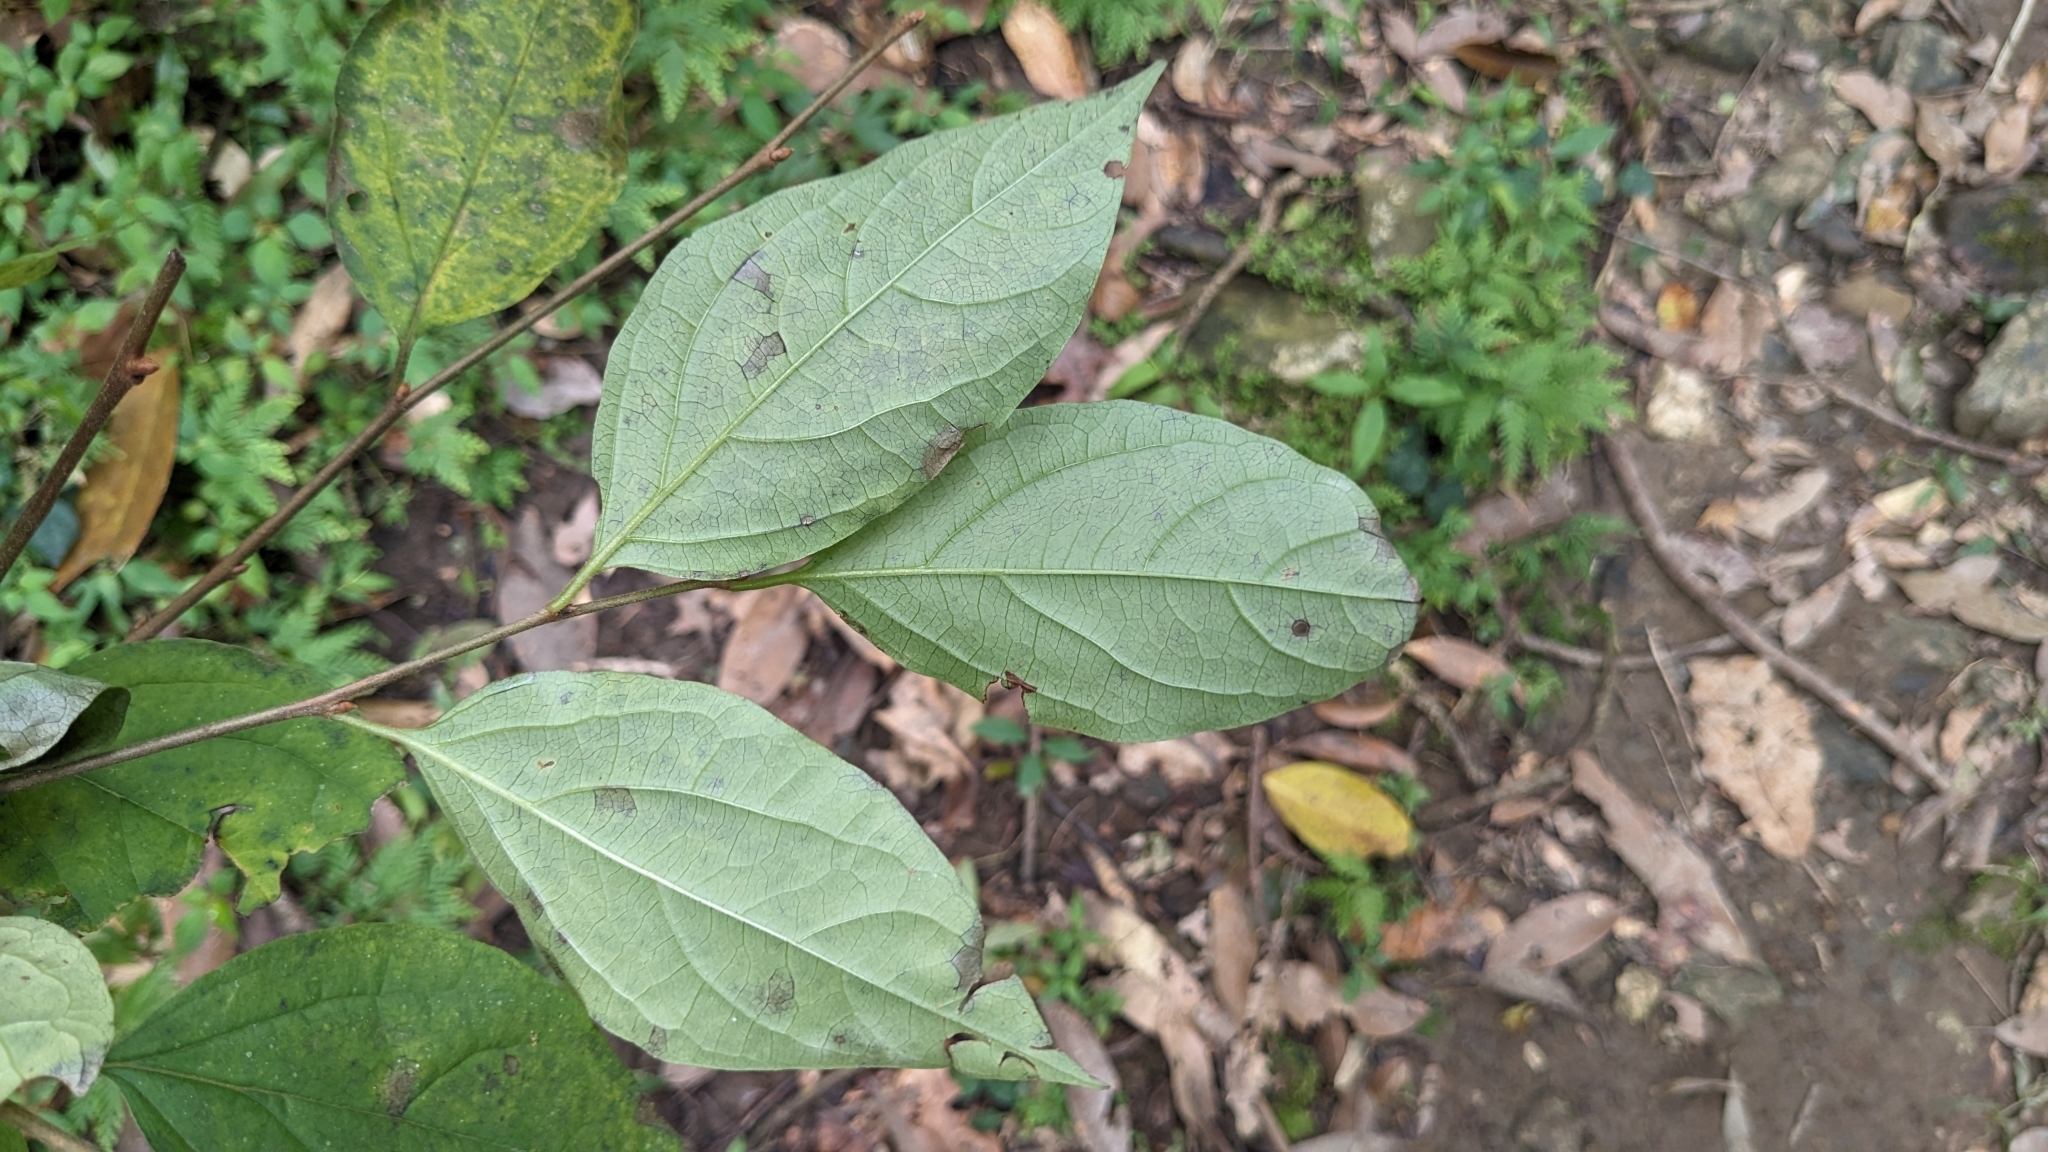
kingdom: Plantae
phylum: Tracheophyta
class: Magnoliopsida
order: Ericales
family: Ebenaceae
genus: Diospyros
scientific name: Diospyros oldhamii
